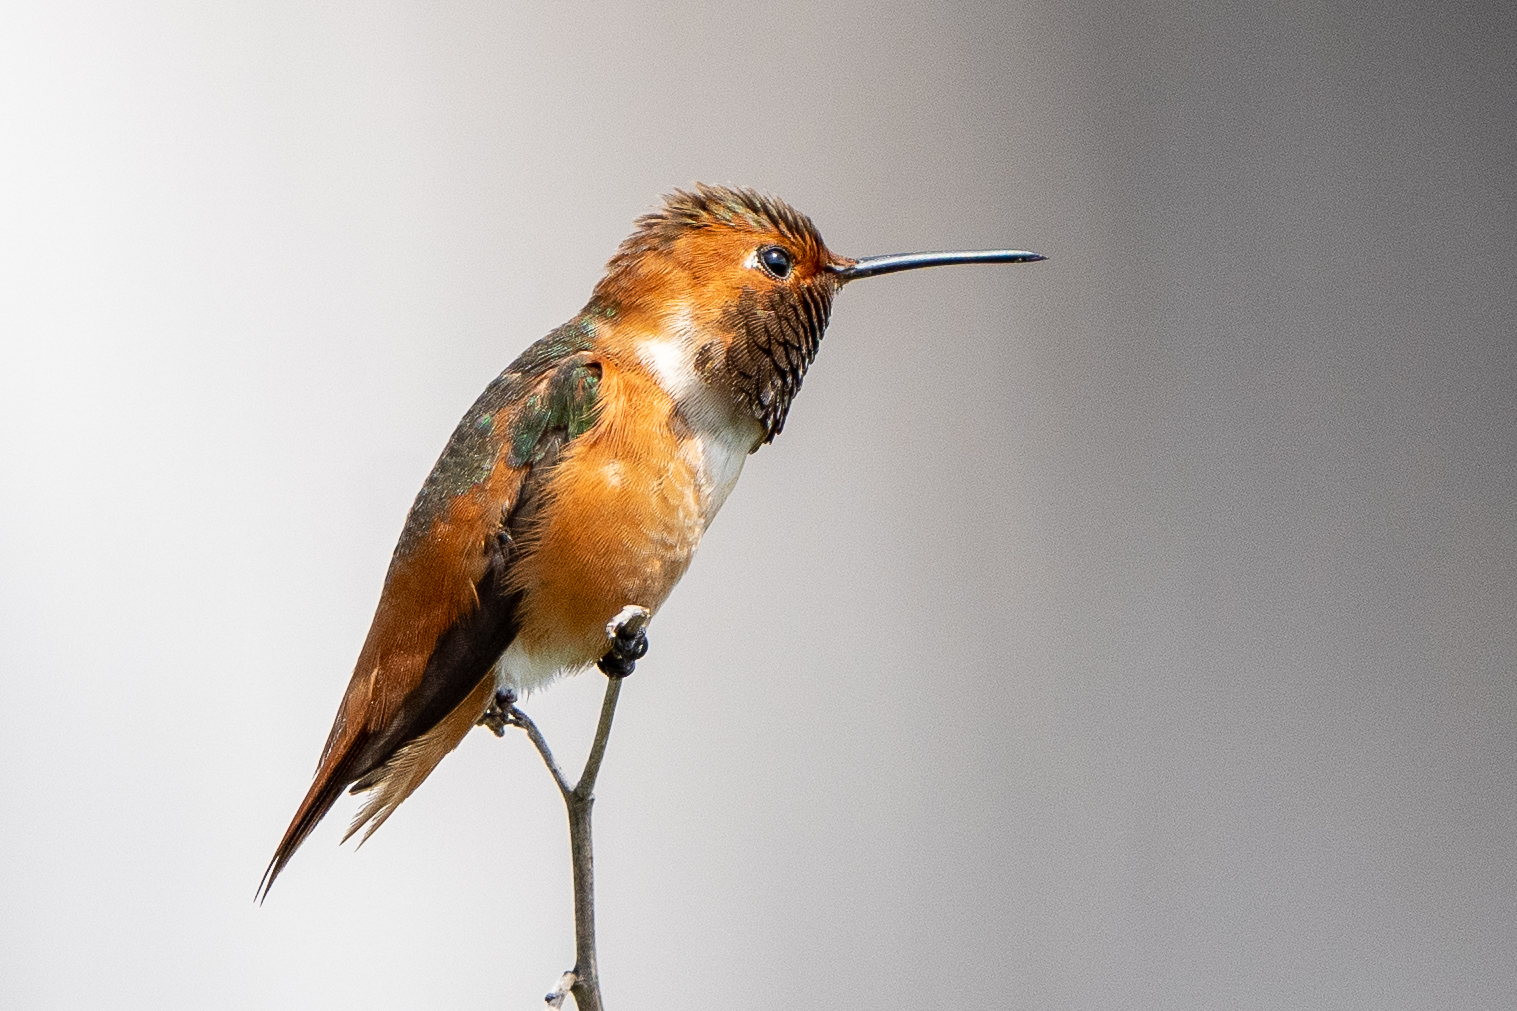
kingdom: Animalia
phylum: Chordata
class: Aves
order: Apodiformes
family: Trochilidae
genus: Selasphorus
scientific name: Selasphorus sasin
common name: Allen's hummingbird
